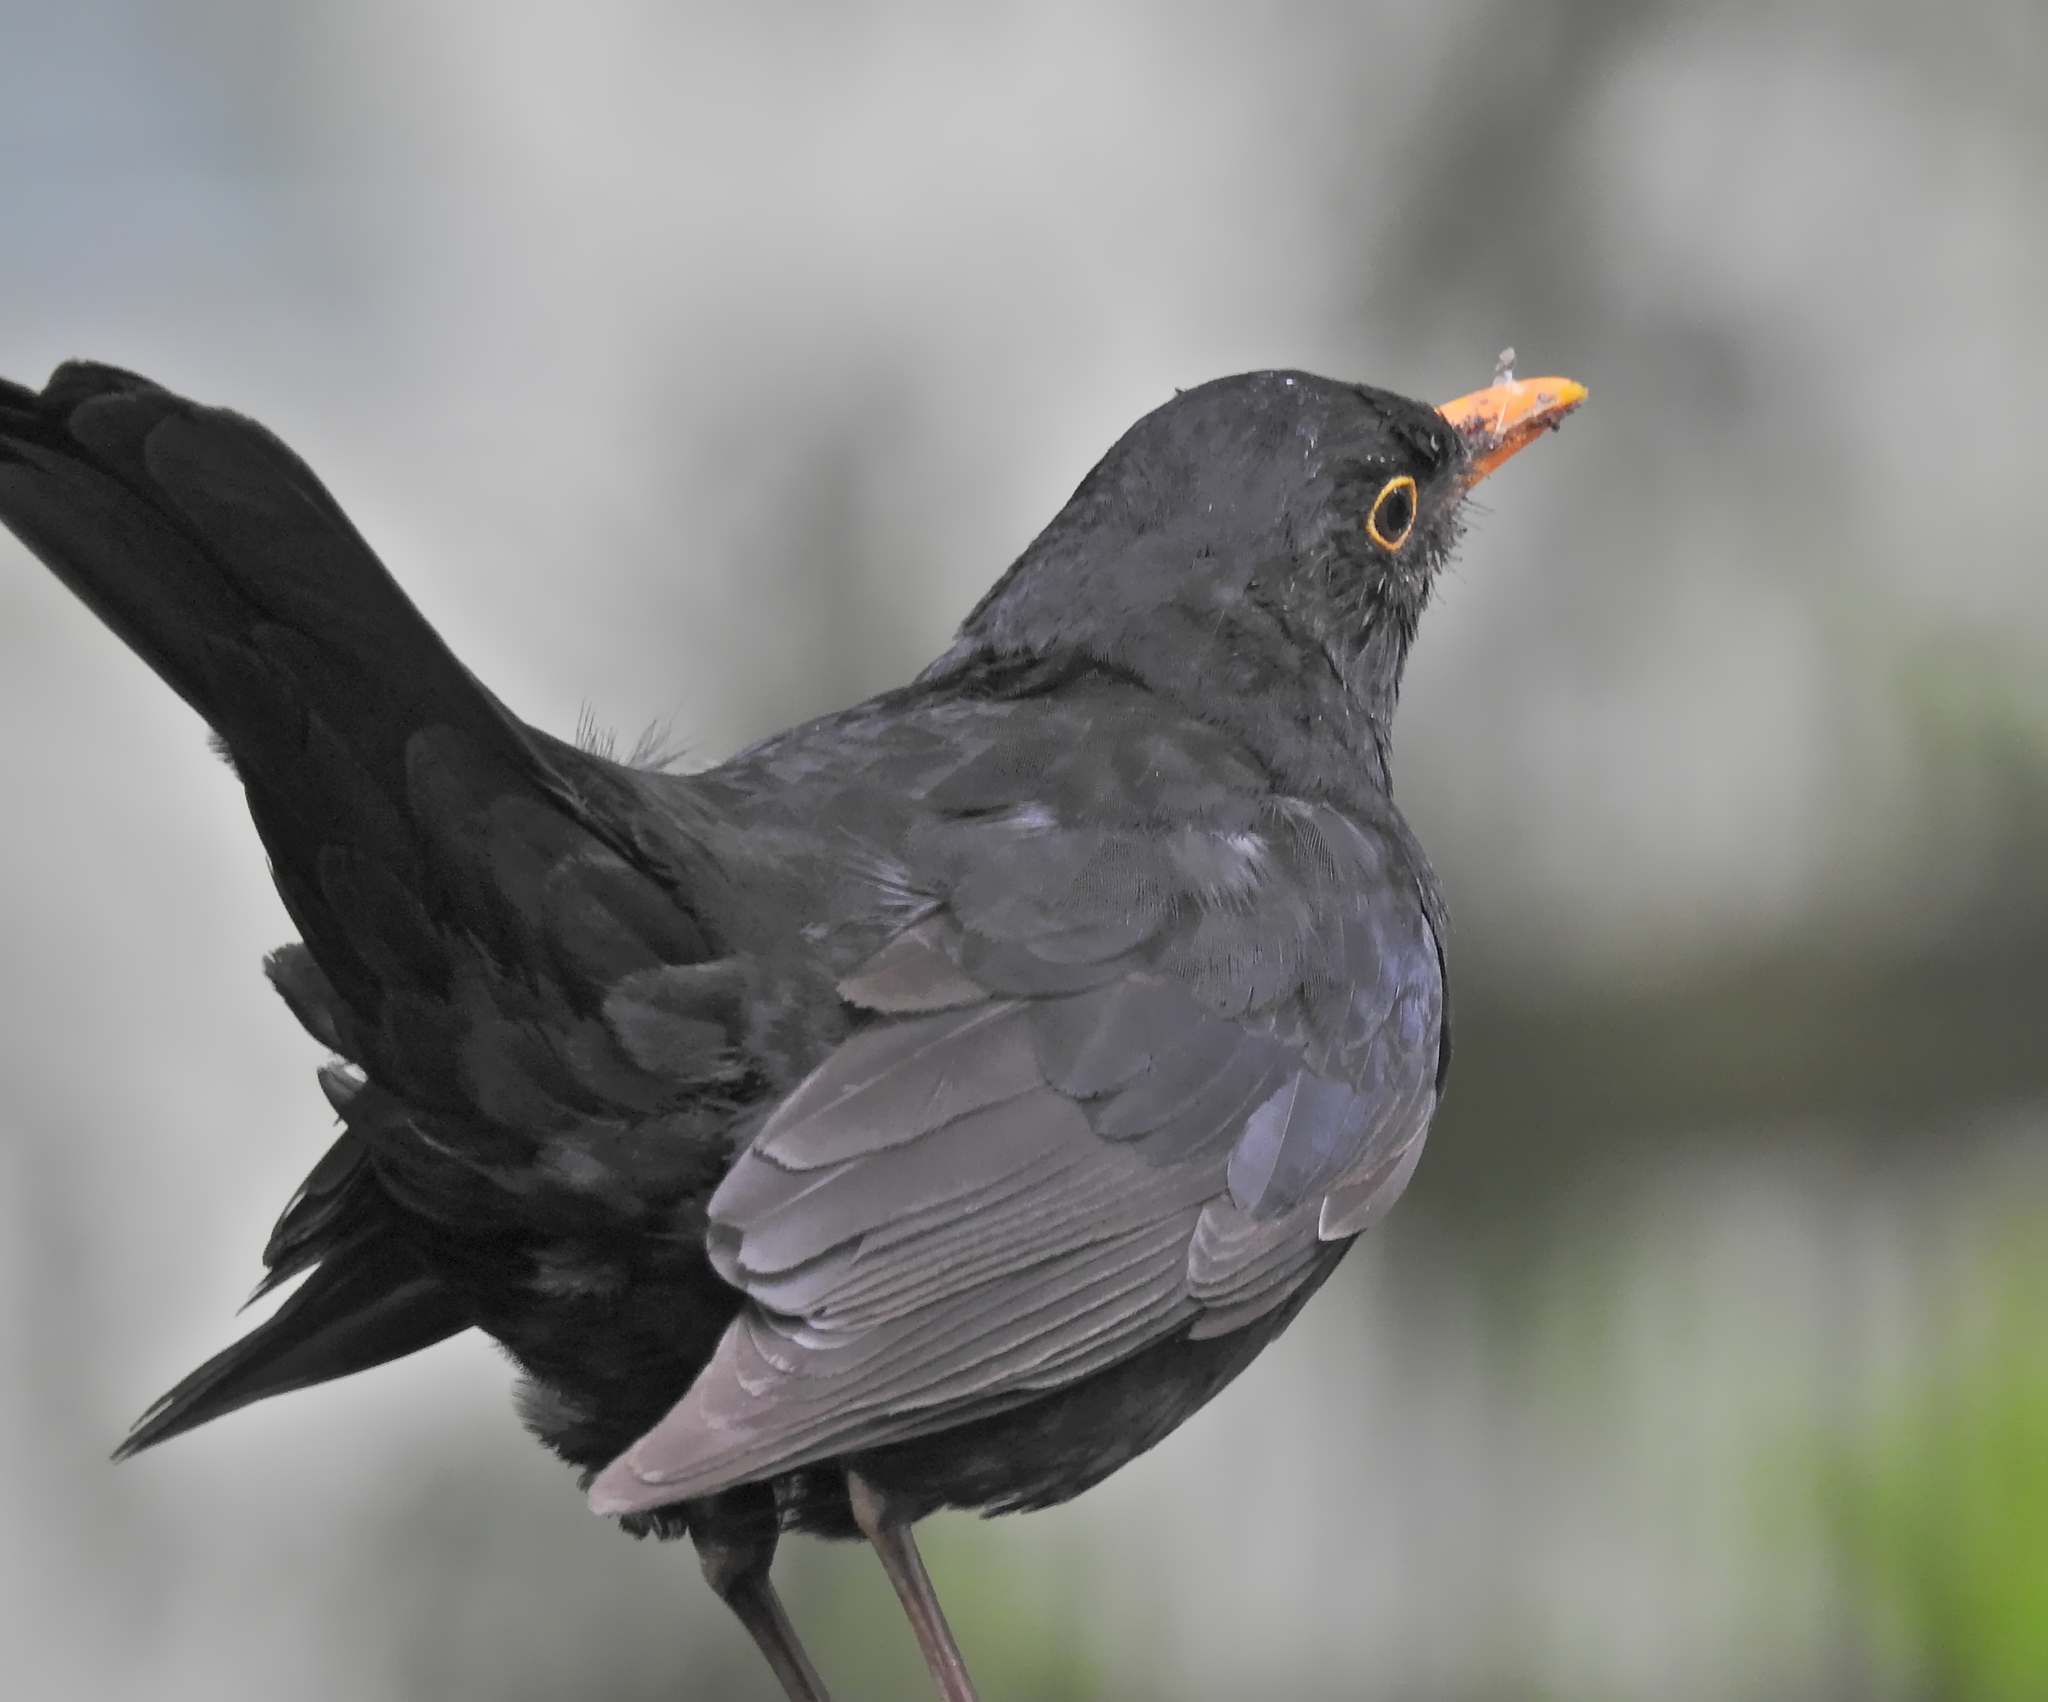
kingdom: Animalia
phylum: Chordata
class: Aves
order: Passeriformes
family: Turdidae
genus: Turdus
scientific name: Turdus merula
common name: Common blackbird
